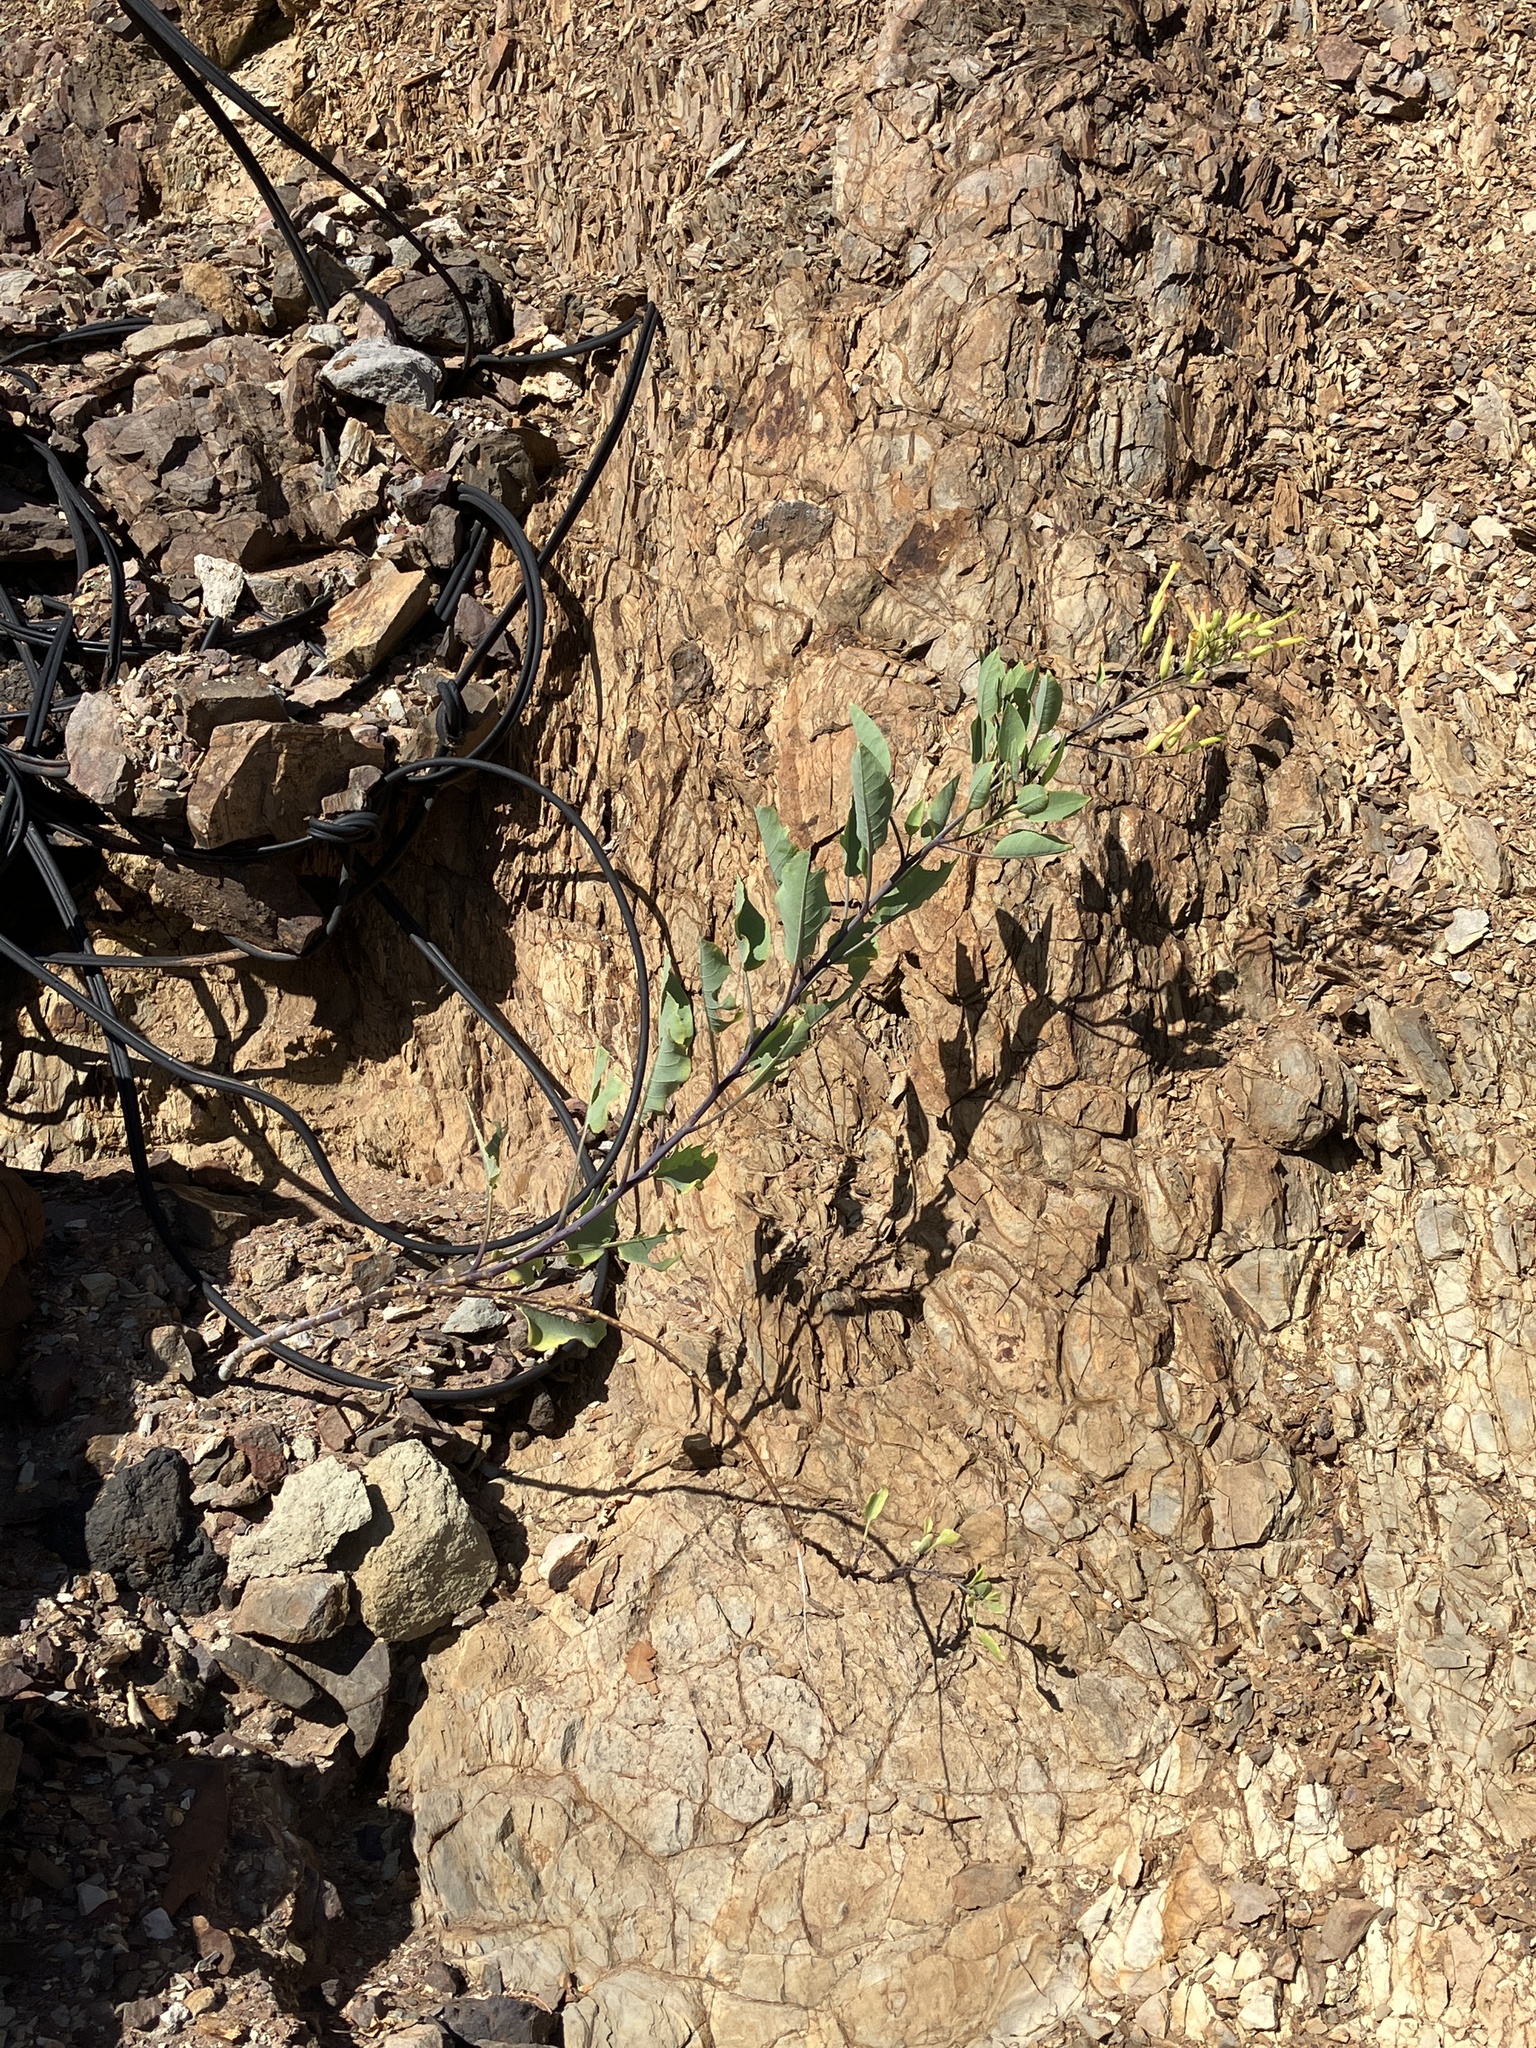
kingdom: Plantae
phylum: Tracheophyta
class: Magnoliopsida
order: Solanales
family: Solanaceae
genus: Nicotiana
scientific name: Nicotiana glauca
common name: Tree tobacco
